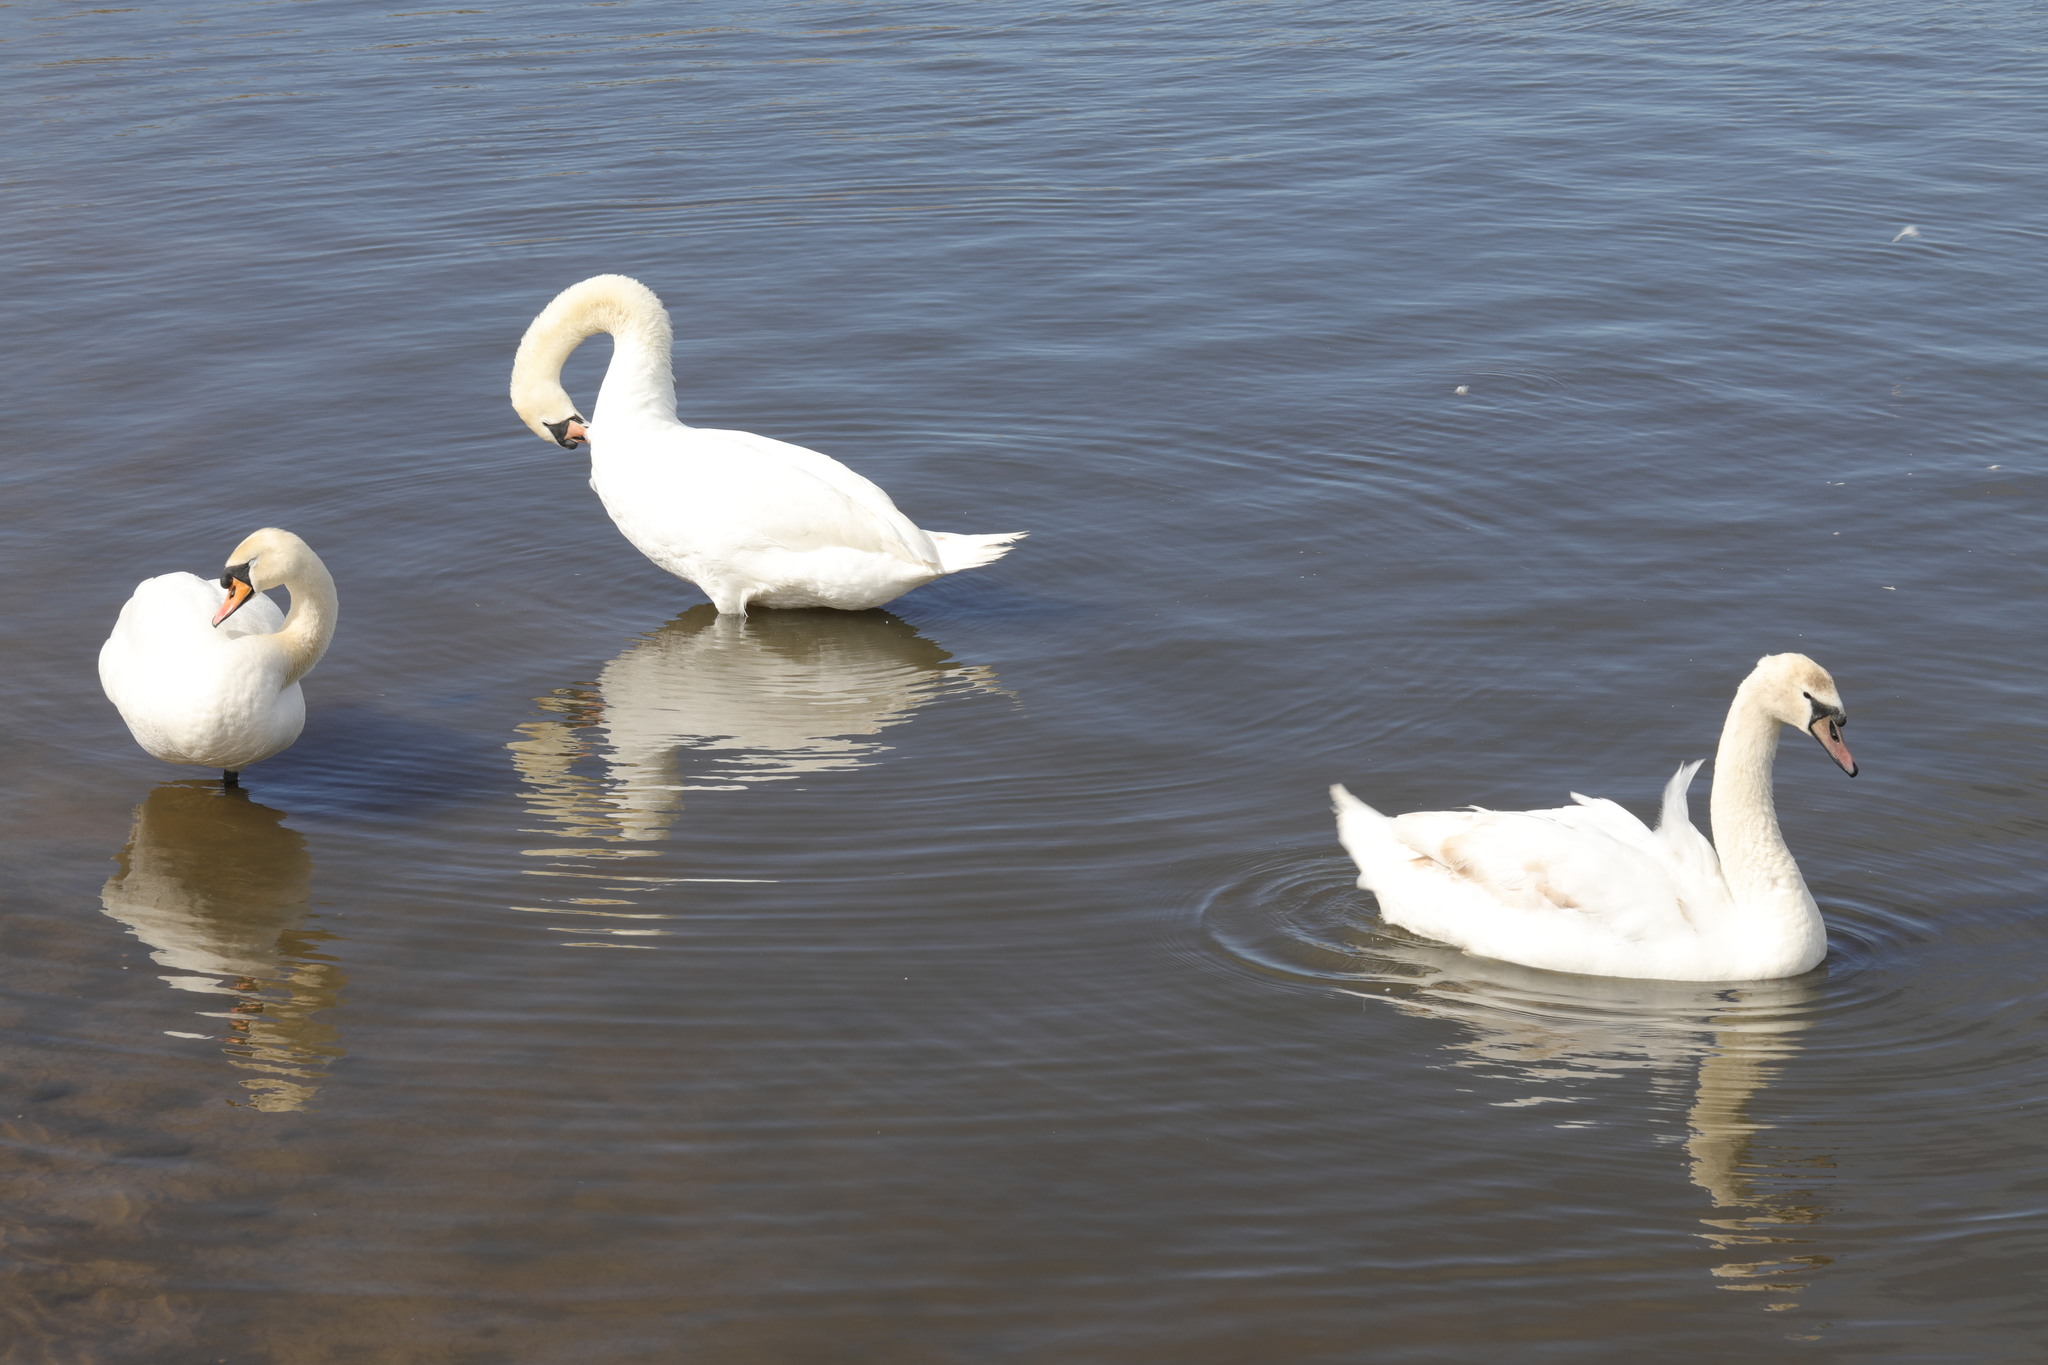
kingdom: Animalia
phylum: Chordata
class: Aves
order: Anseriformes
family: Anatidae
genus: Cygnus
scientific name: Cygnus olor
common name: Mute swan
